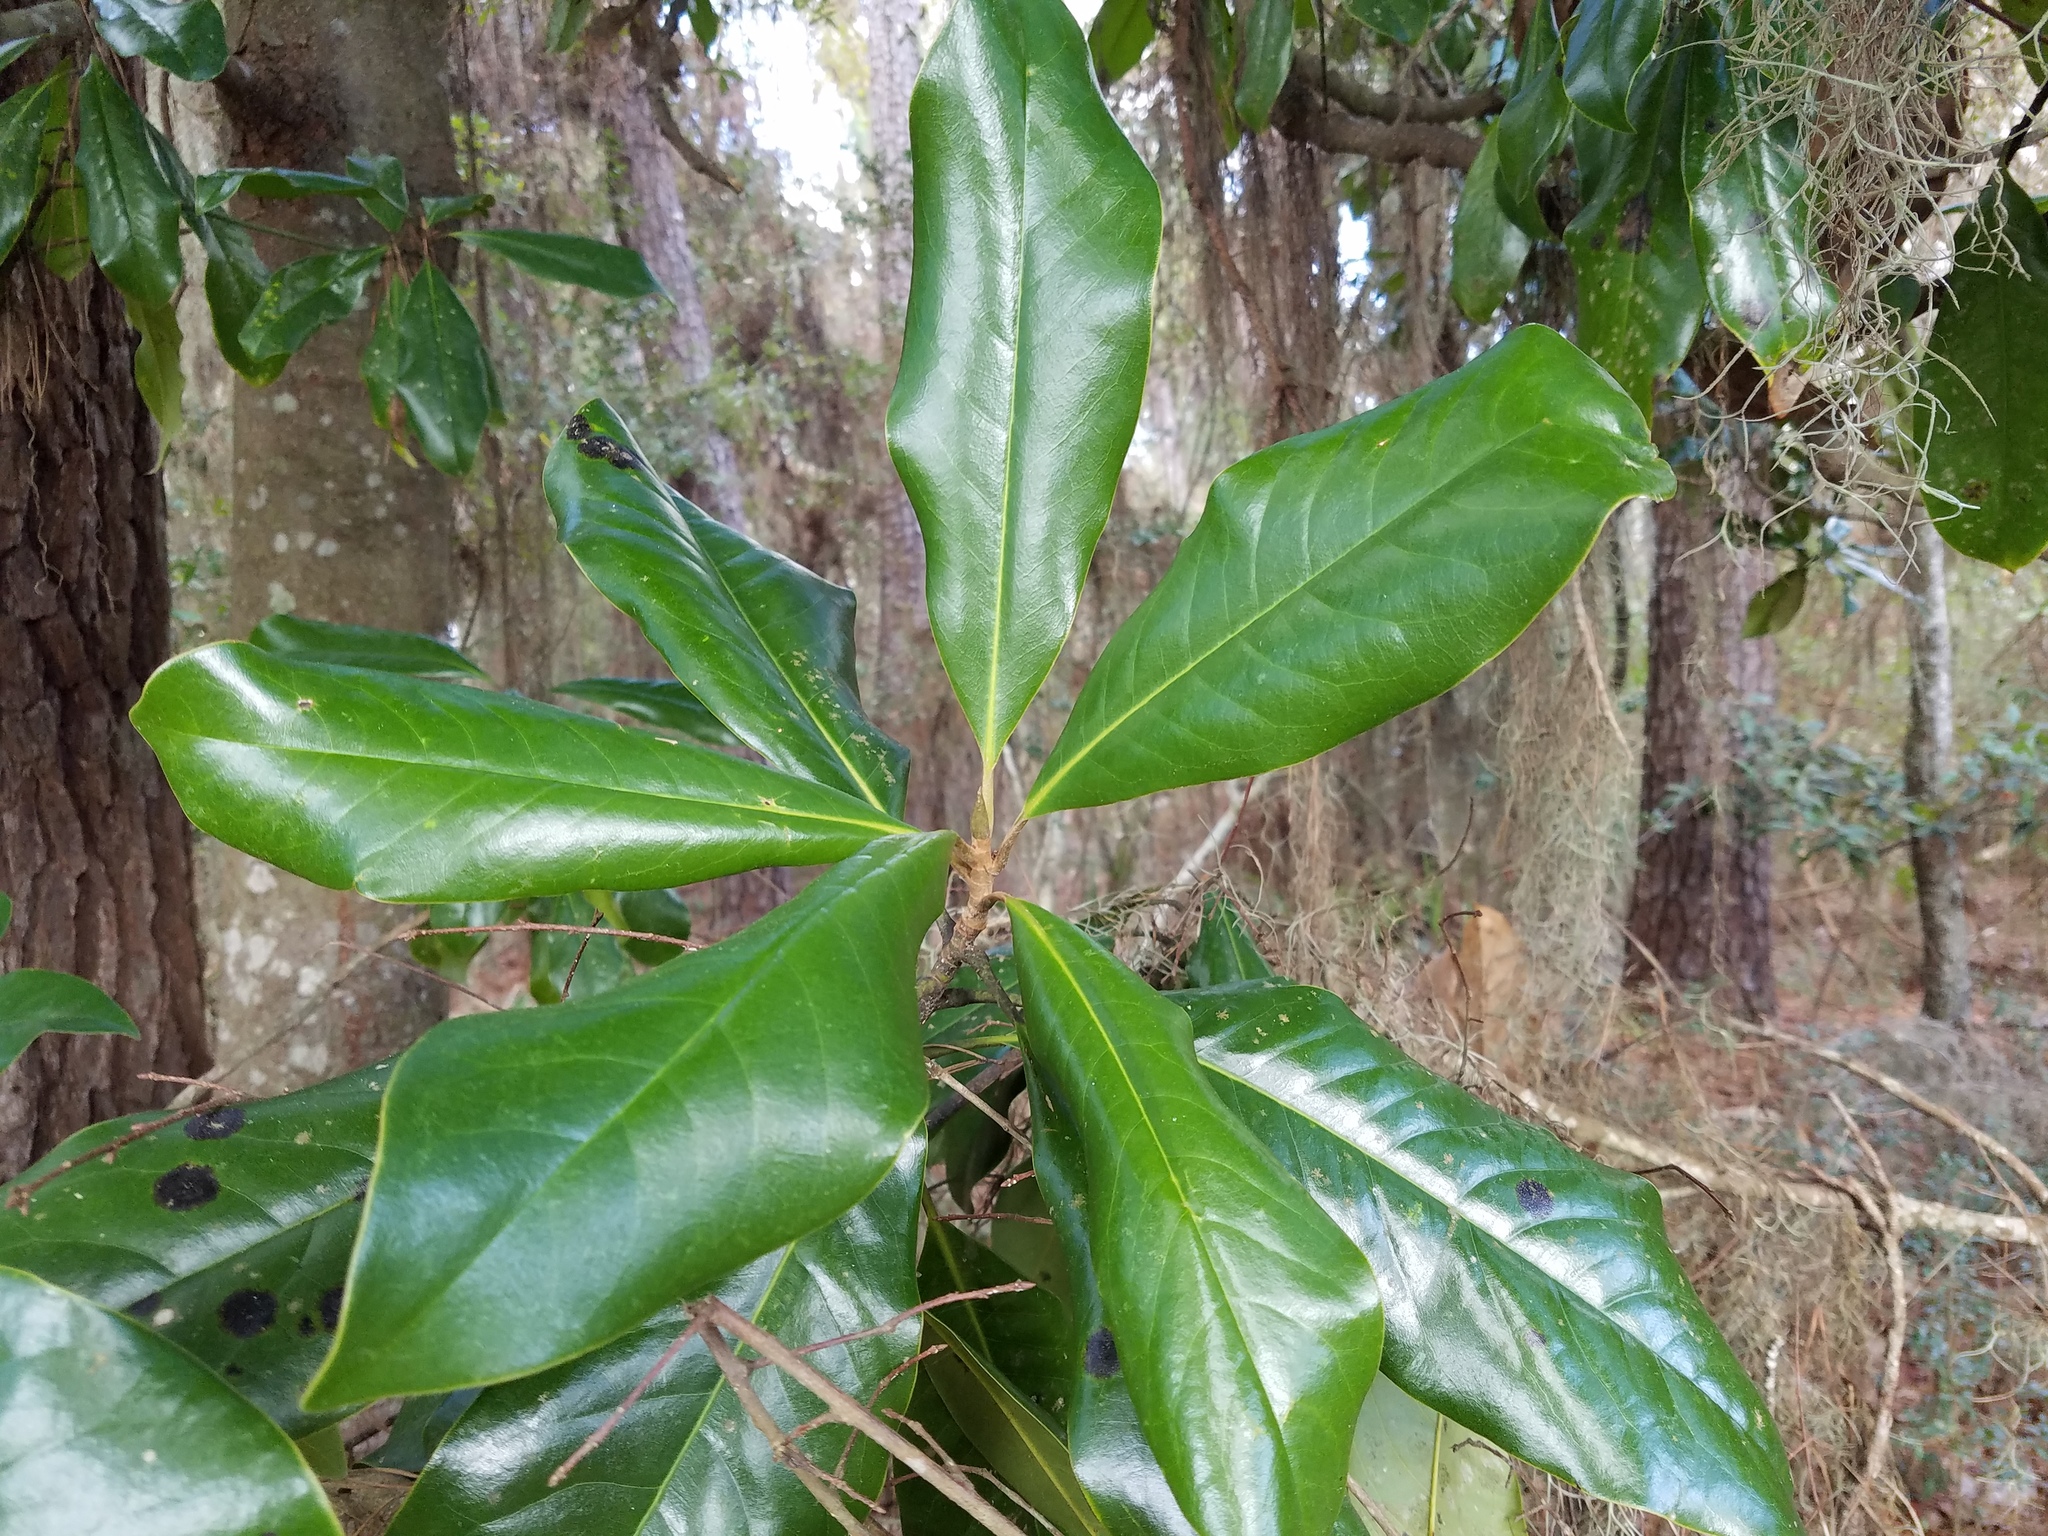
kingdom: Plantae
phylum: Tracheophyta
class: Magnoliopsida
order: Magnoliales
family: Magnoliaceae
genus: Magnolia
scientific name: Magnolia grandiflora
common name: Southern magnolia
